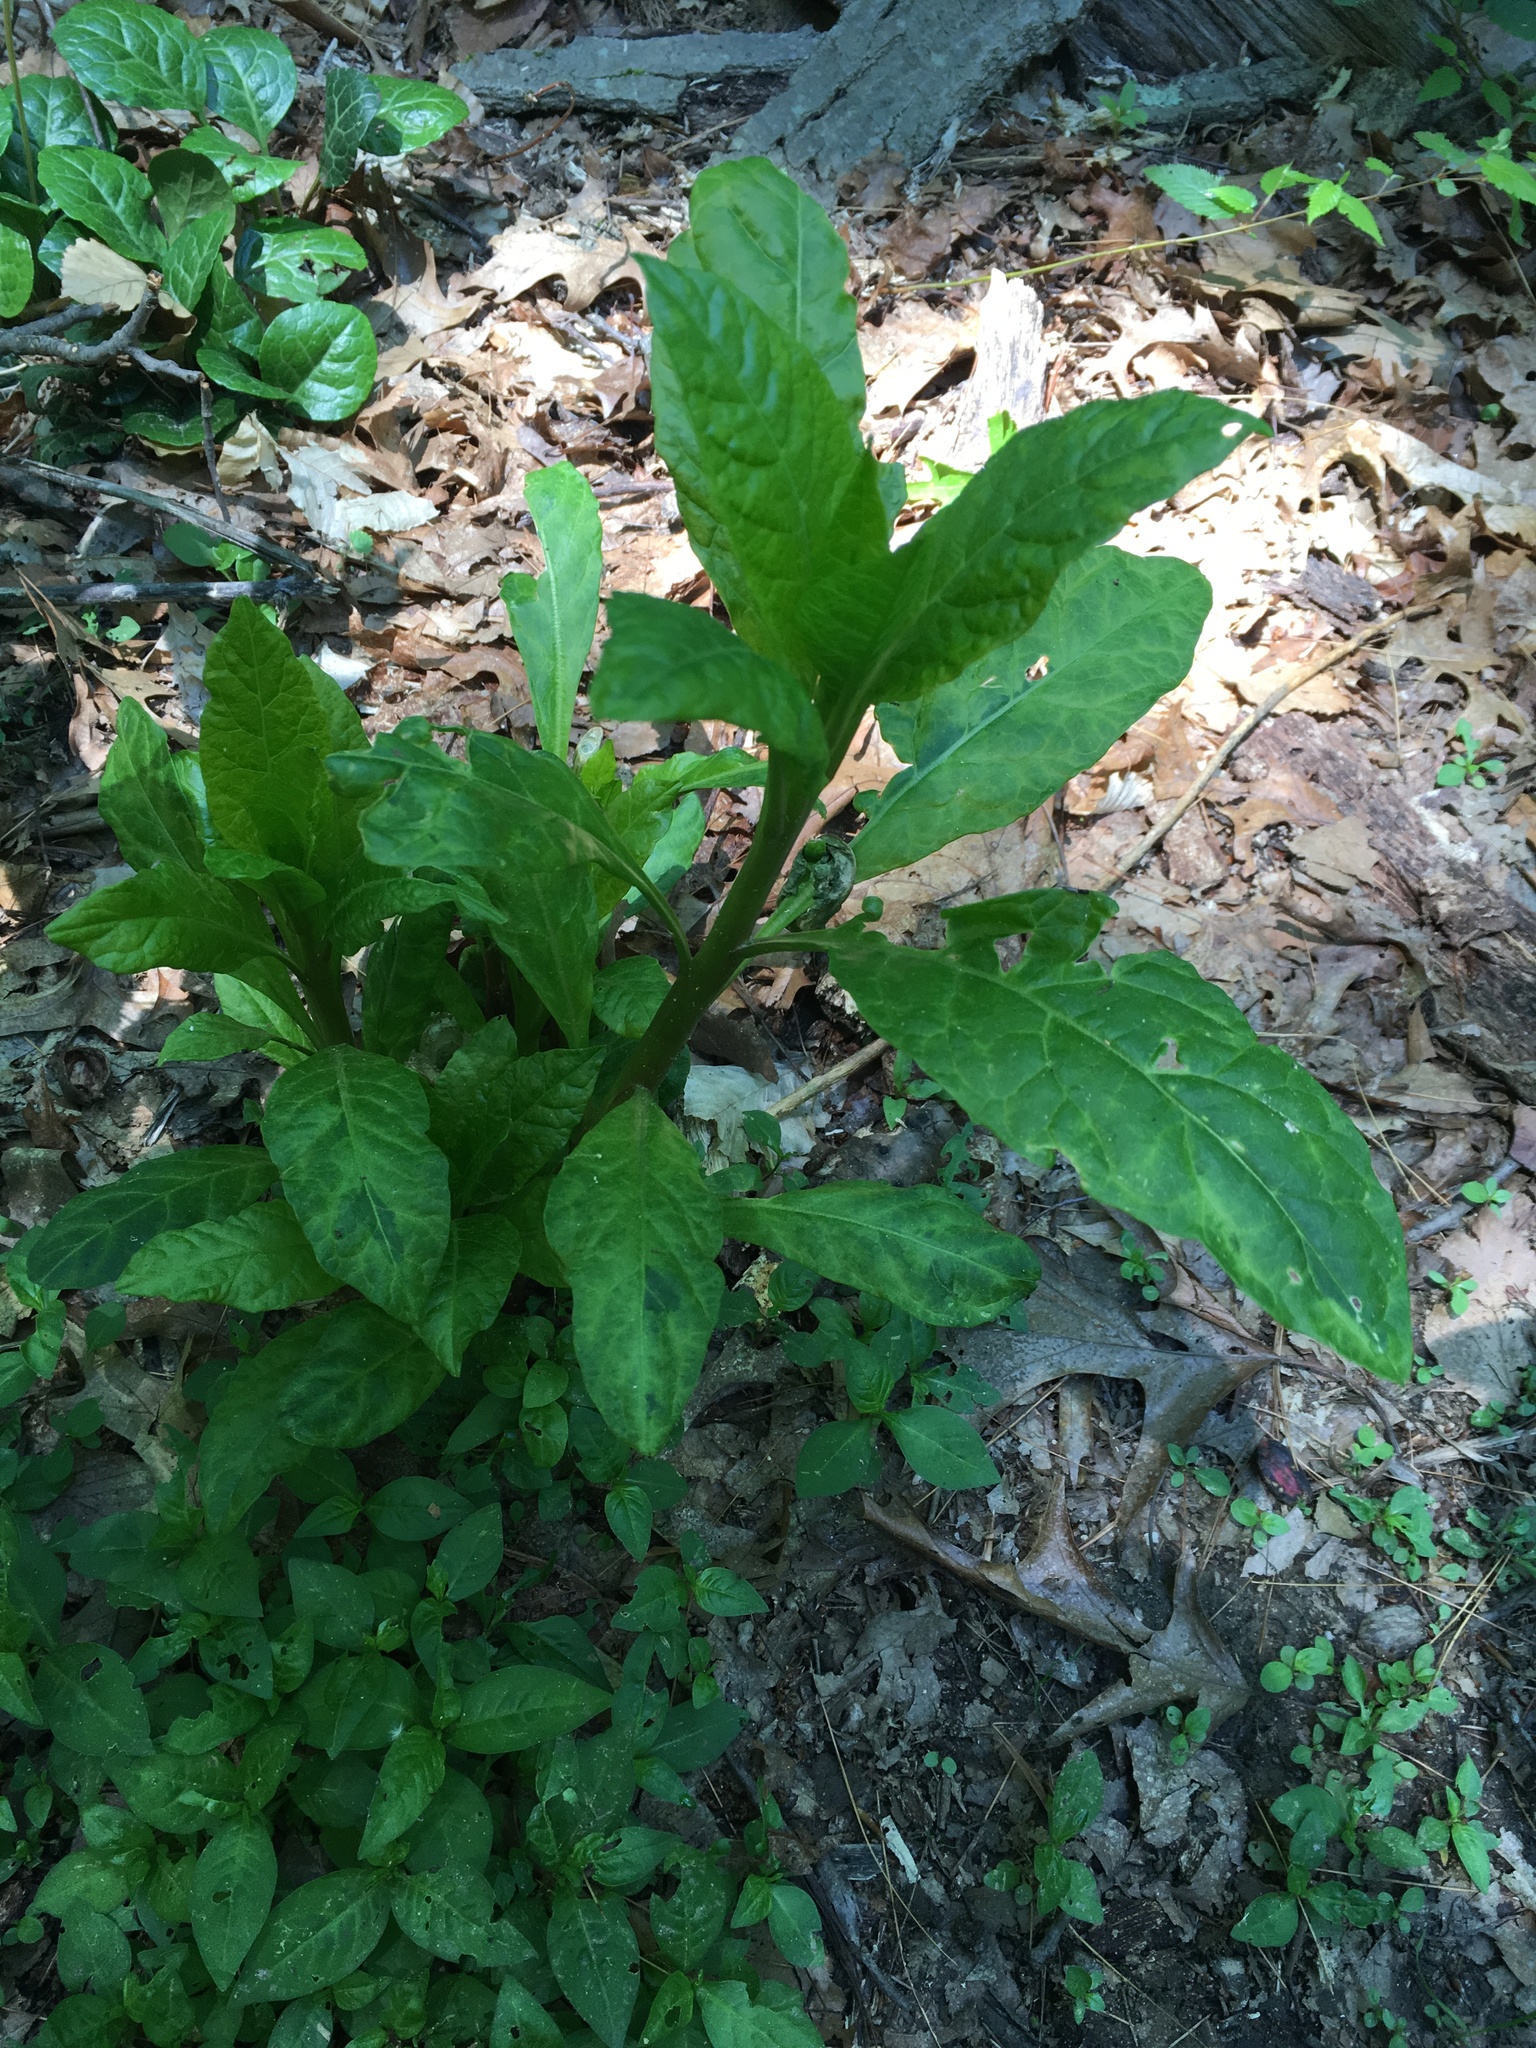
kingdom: Plantae
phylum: Tracheophyta
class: Magnoliopsida
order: Caryophyllales
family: Phytolaccaceae
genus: Phytolacca
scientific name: Phytolacca americana
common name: American pokeweed
